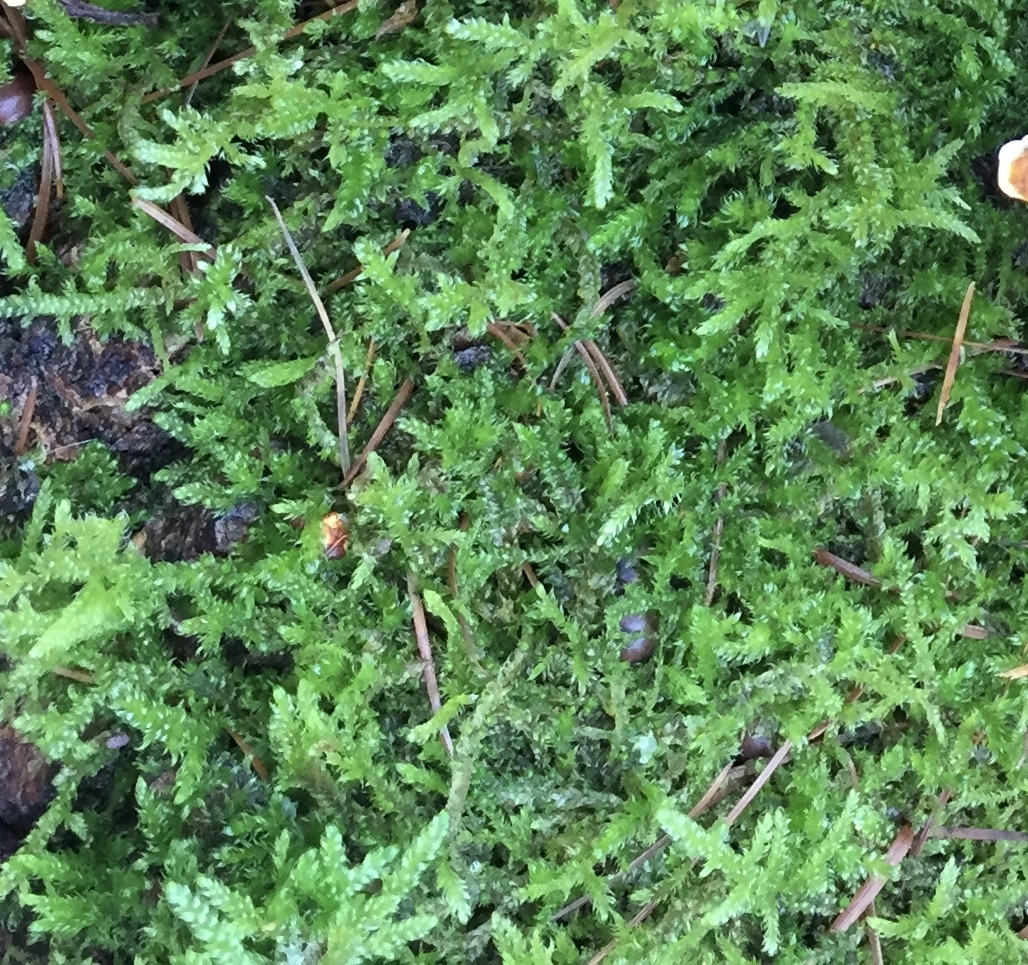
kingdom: Plantae
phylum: Bryophyta
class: Bryopsida
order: Hypnales
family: Hypnaceae
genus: Hypnum
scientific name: Hypnum cupressiforme
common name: Cypress-leaved plait-moss
